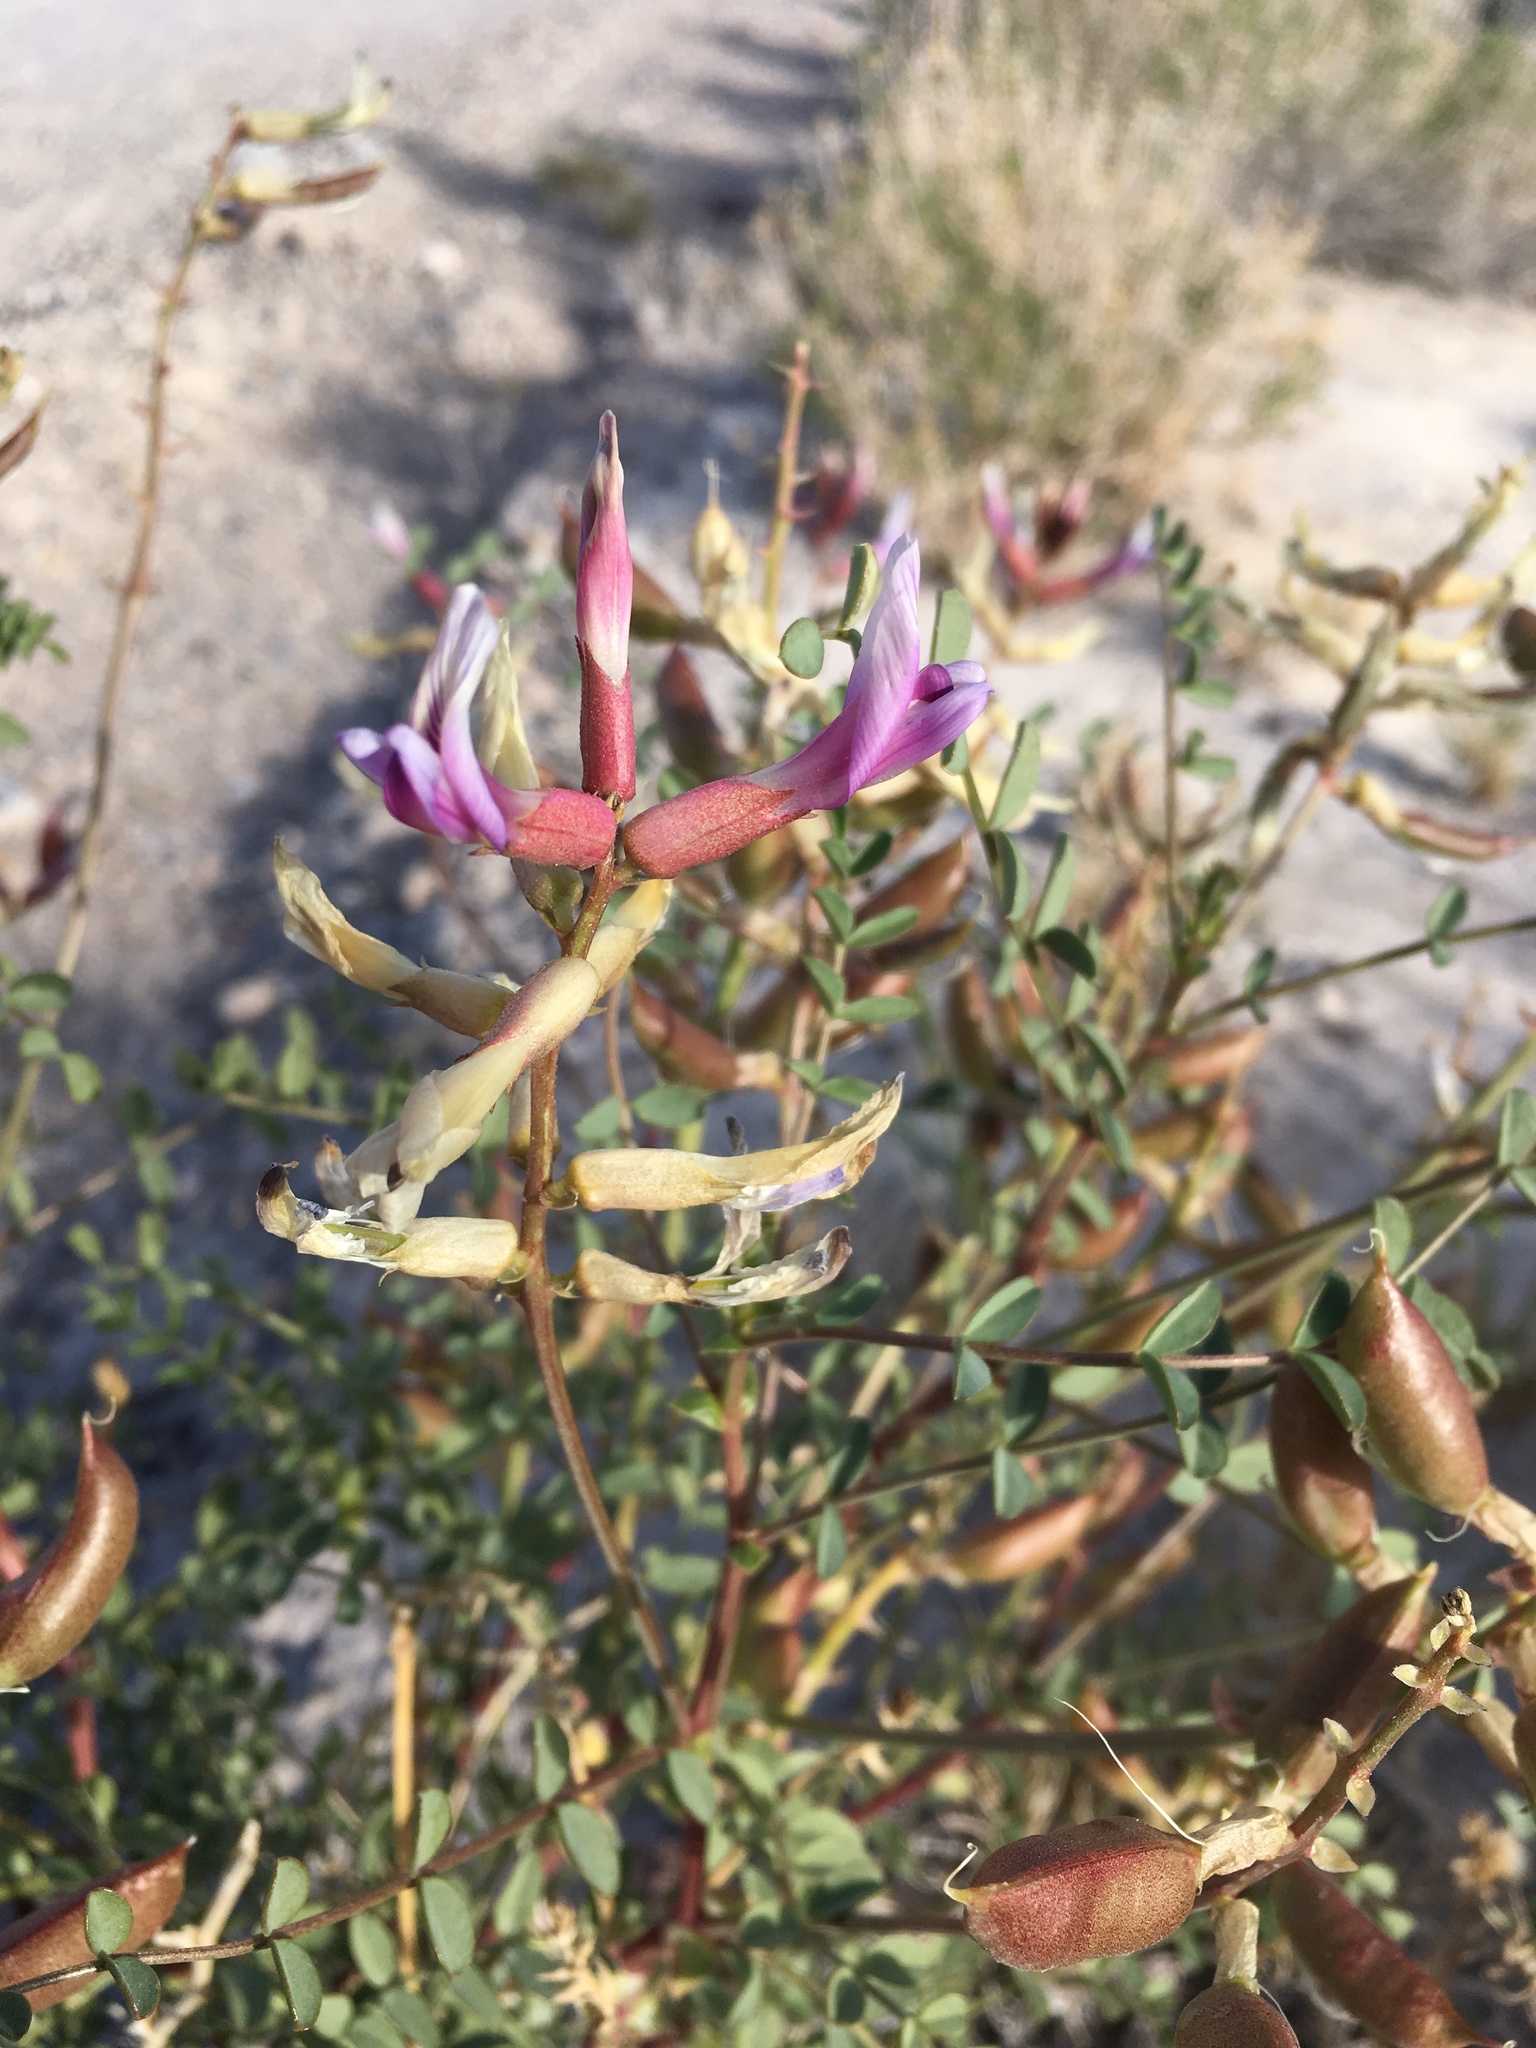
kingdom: Plantae
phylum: Tracheophyta
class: Magnoliopsida
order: Fabales
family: Fabaceae
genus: Astragalus
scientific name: Astragalus preussii
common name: Preuss's milk-vetch
